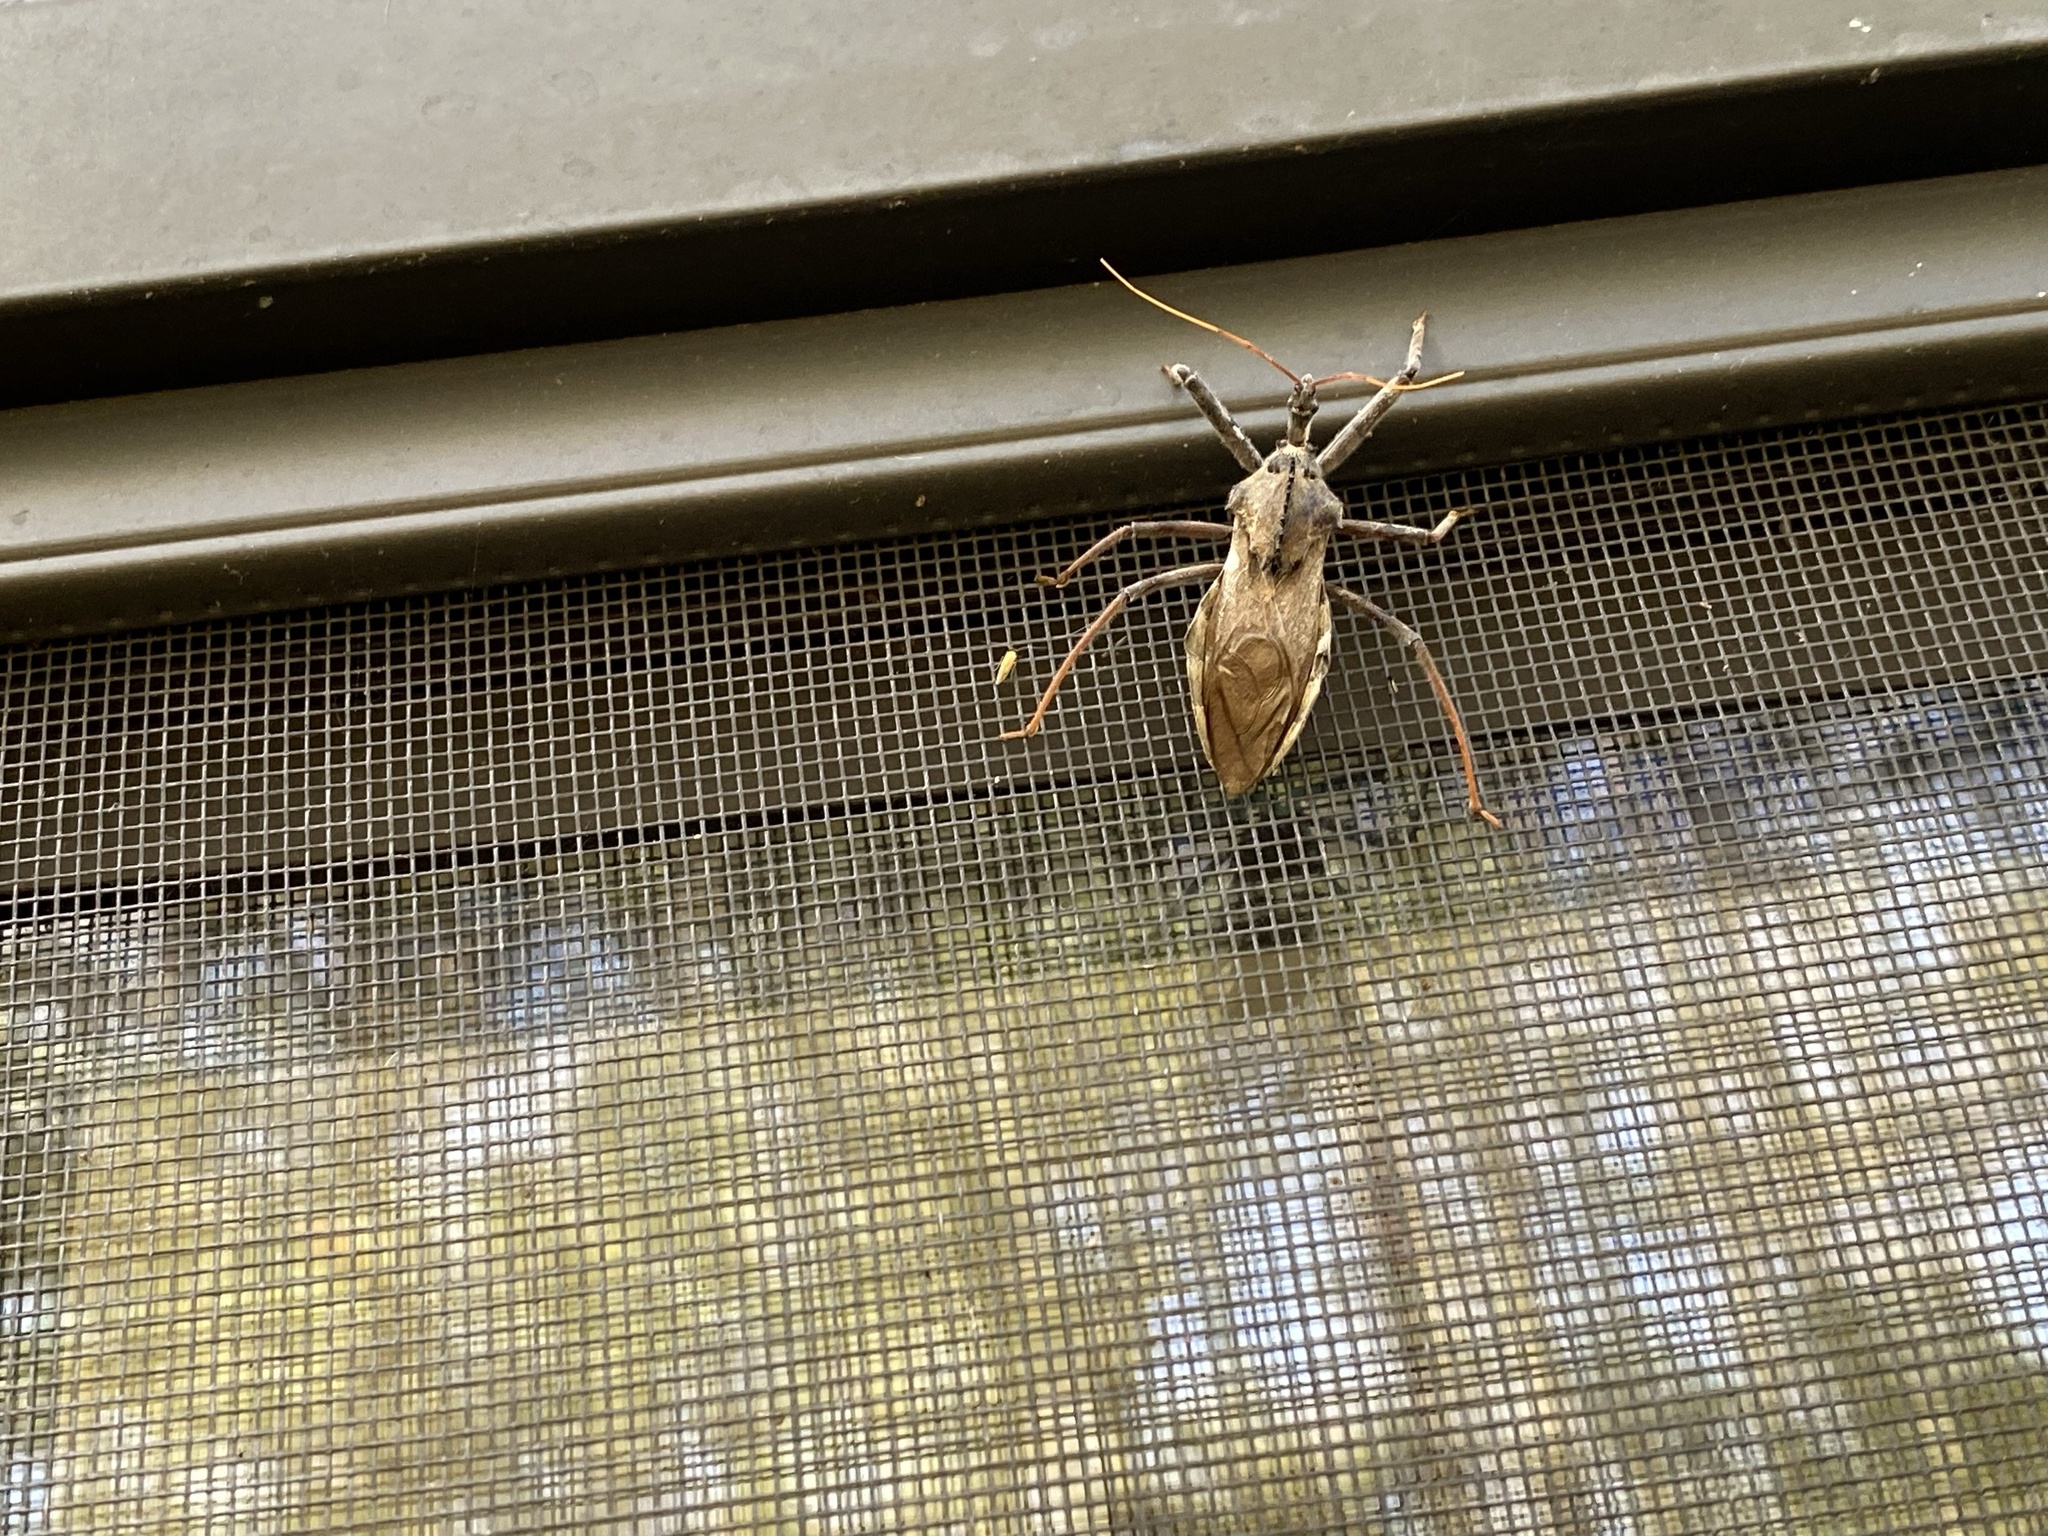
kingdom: Animalia
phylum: Arthropoda
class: Insecta
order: Hemiptera
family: Reduviidae
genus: Arilus
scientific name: Arilus cristatus
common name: North american wheel bug
